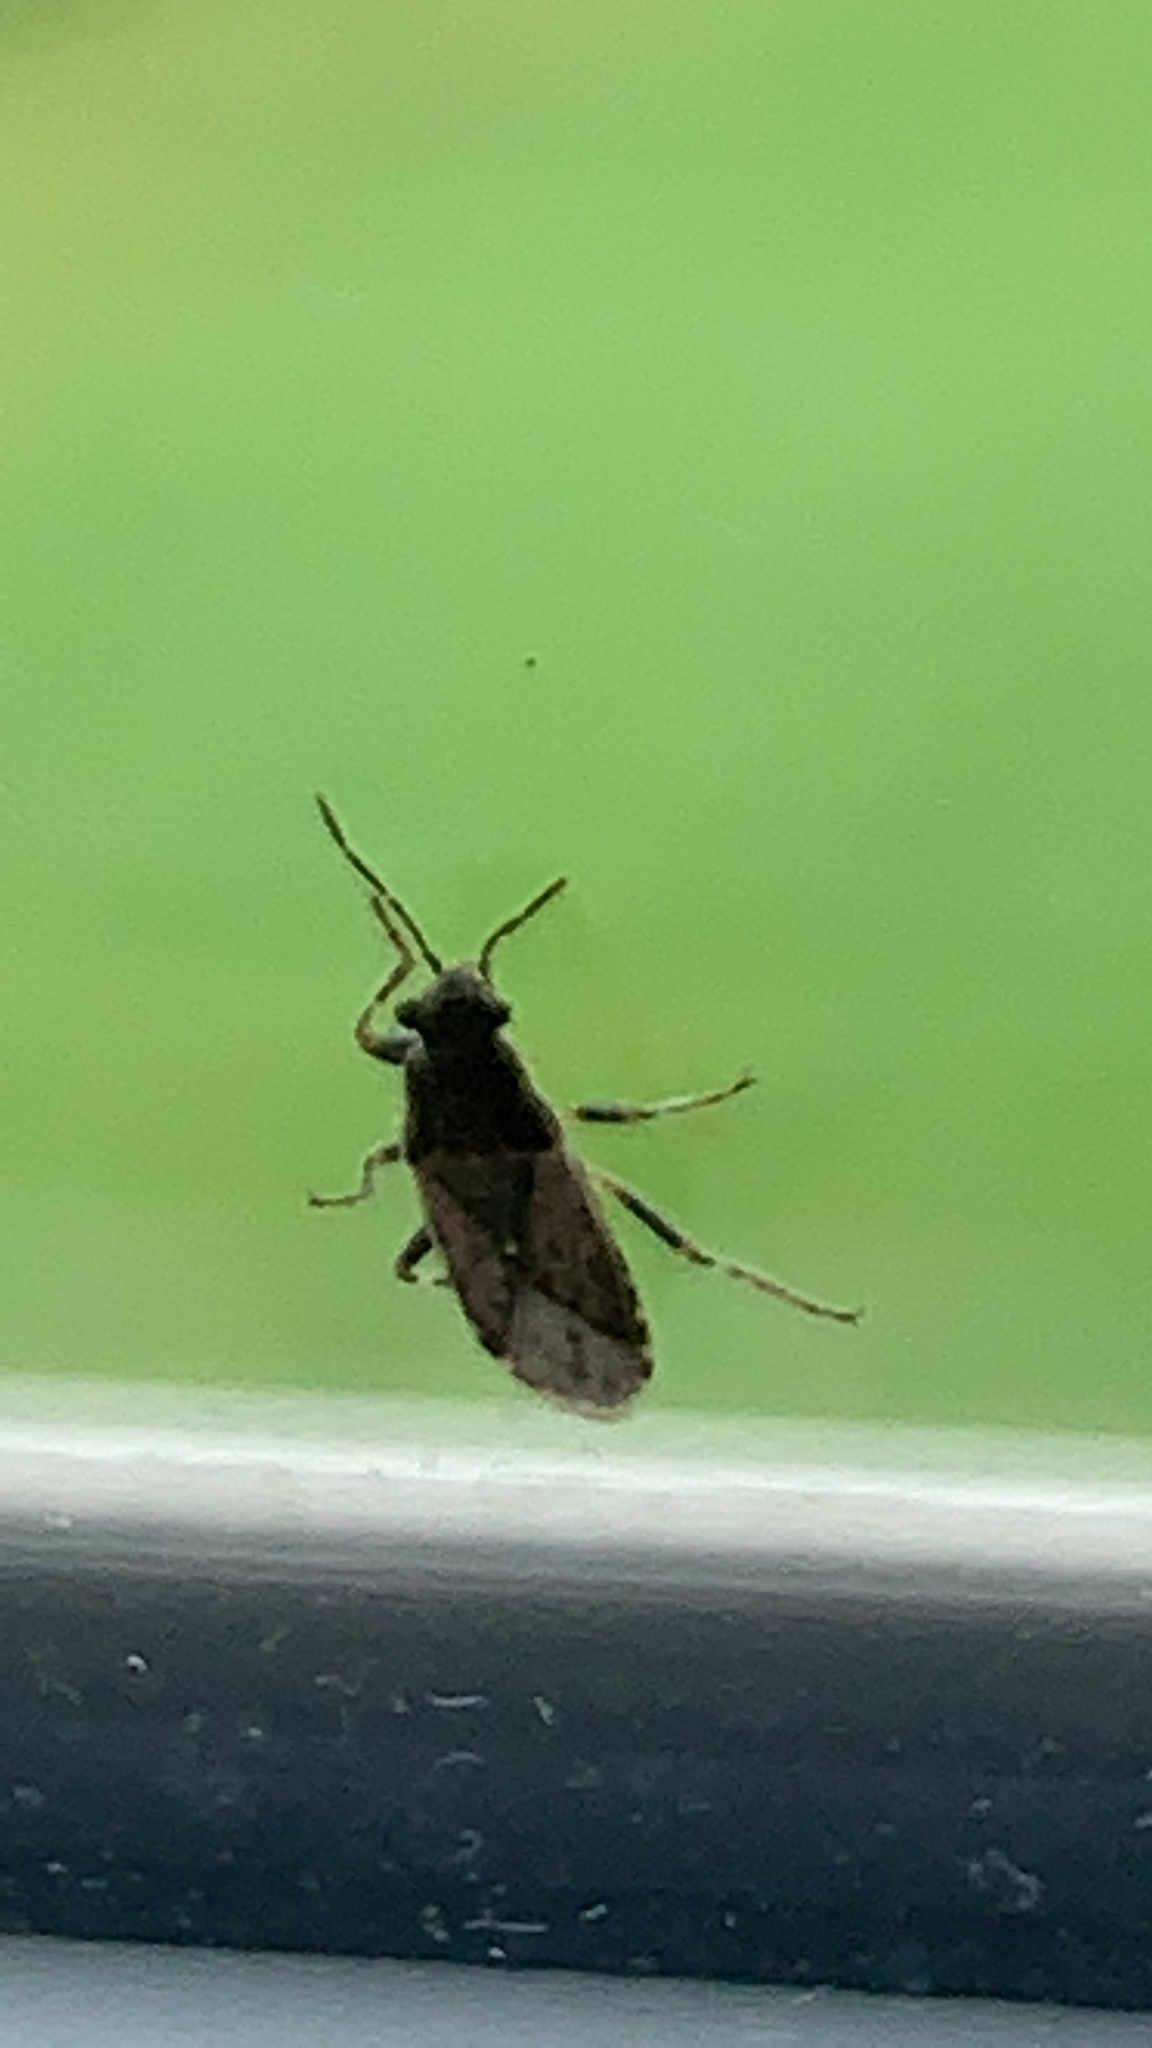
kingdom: Animalia
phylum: Arthropoda
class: Insecta
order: Hemiptera
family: Heterogastridae
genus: Heterogaster
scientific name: Heterogaster urticae
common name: Seed bug
